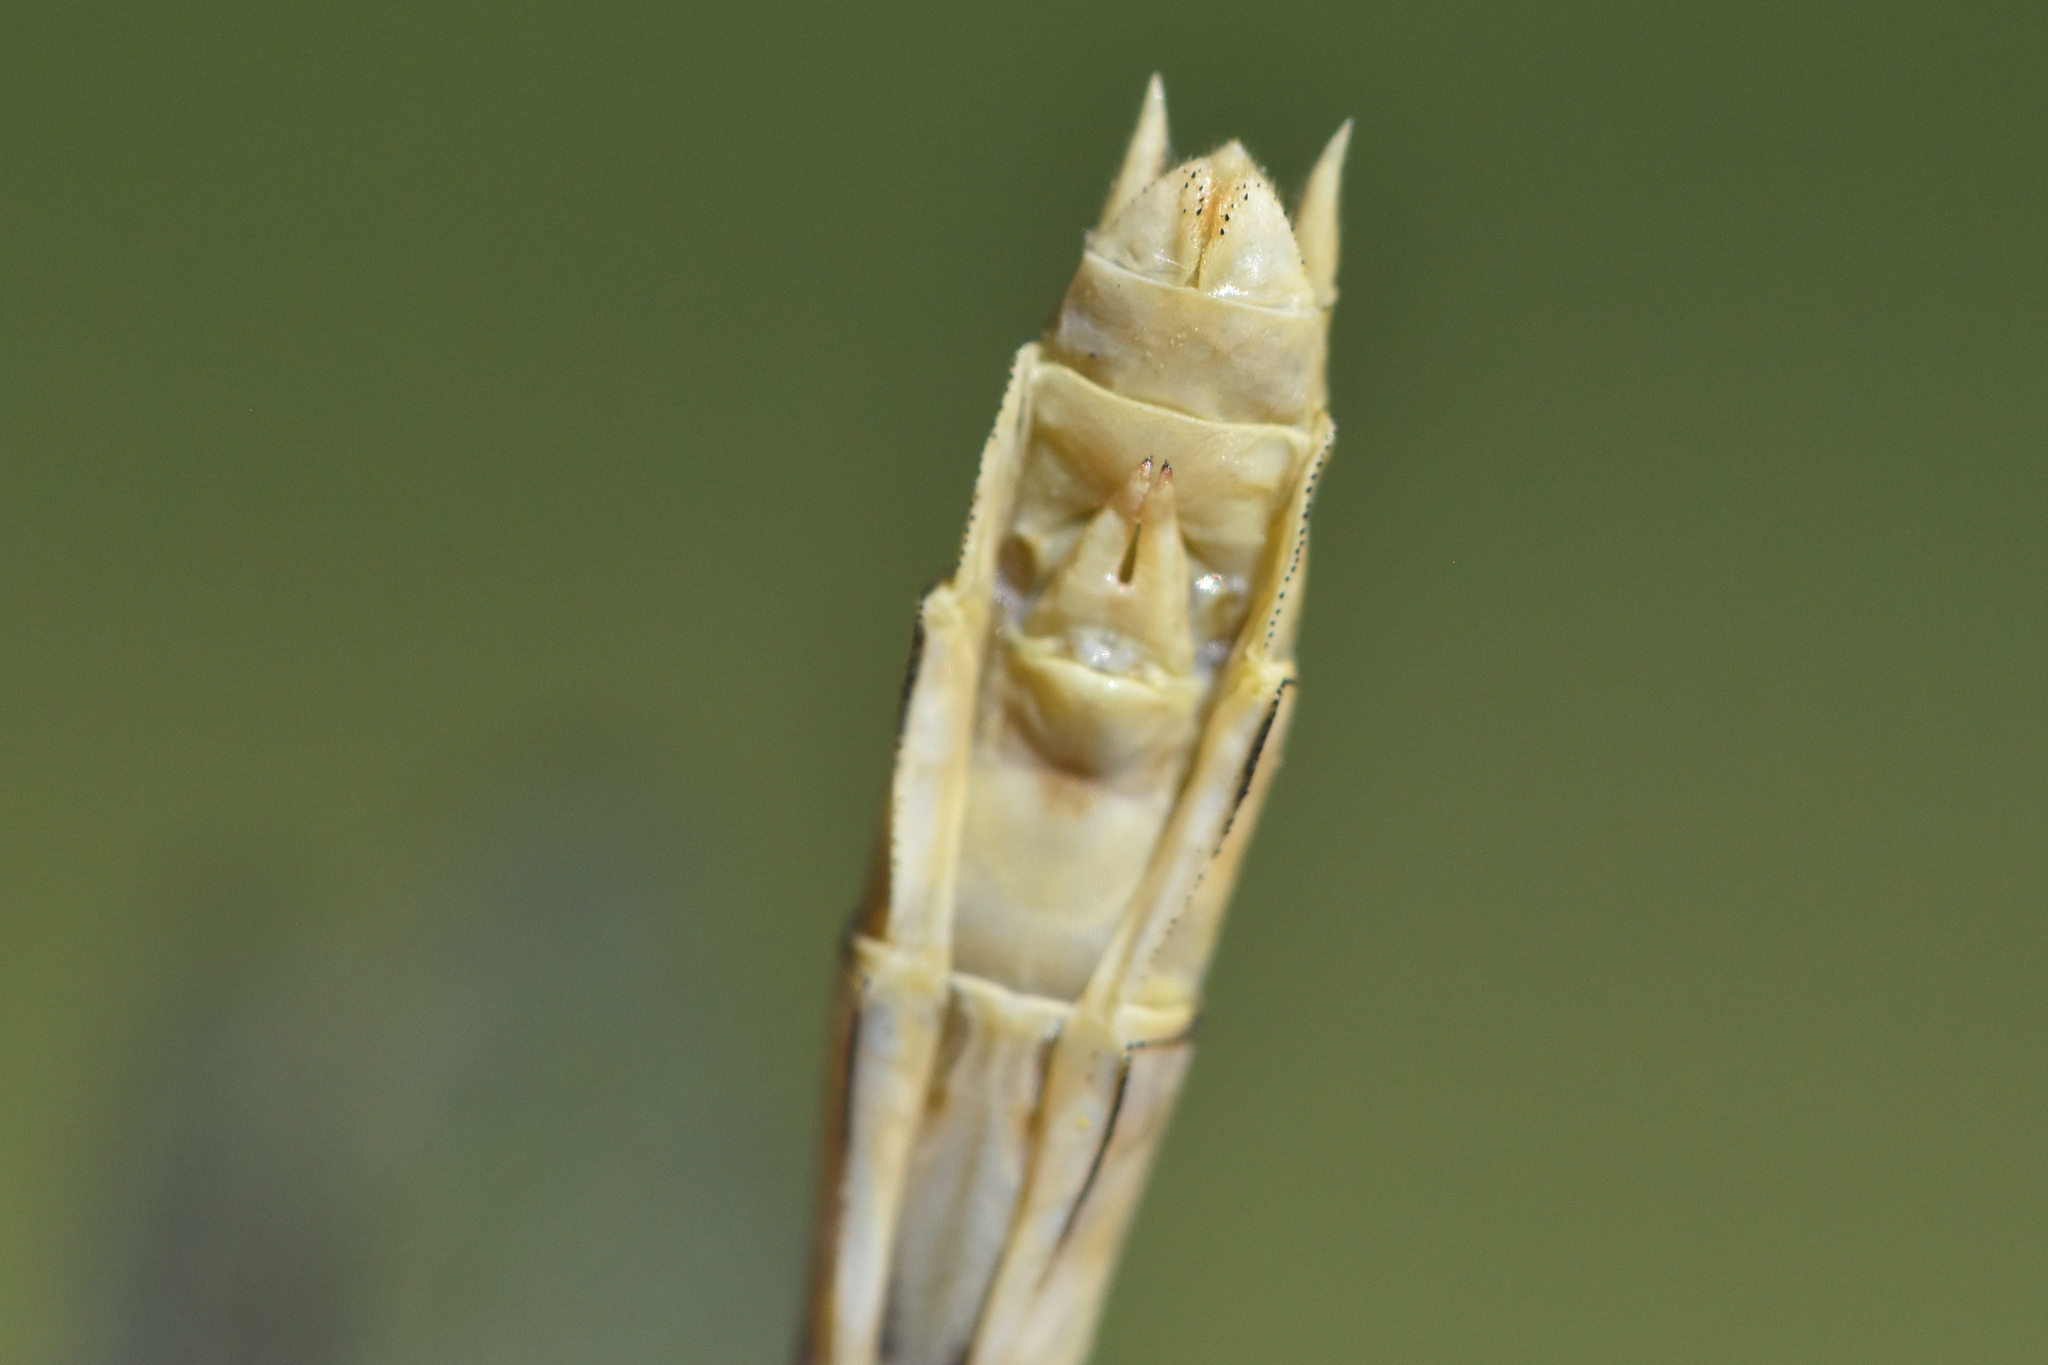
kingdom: Animalia
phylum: Arthropoda
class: Insecta
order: Odonata
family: Gomphidae
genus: Ophiogomphus
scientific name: Ophiogomphus severus
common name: Pale snaketail
